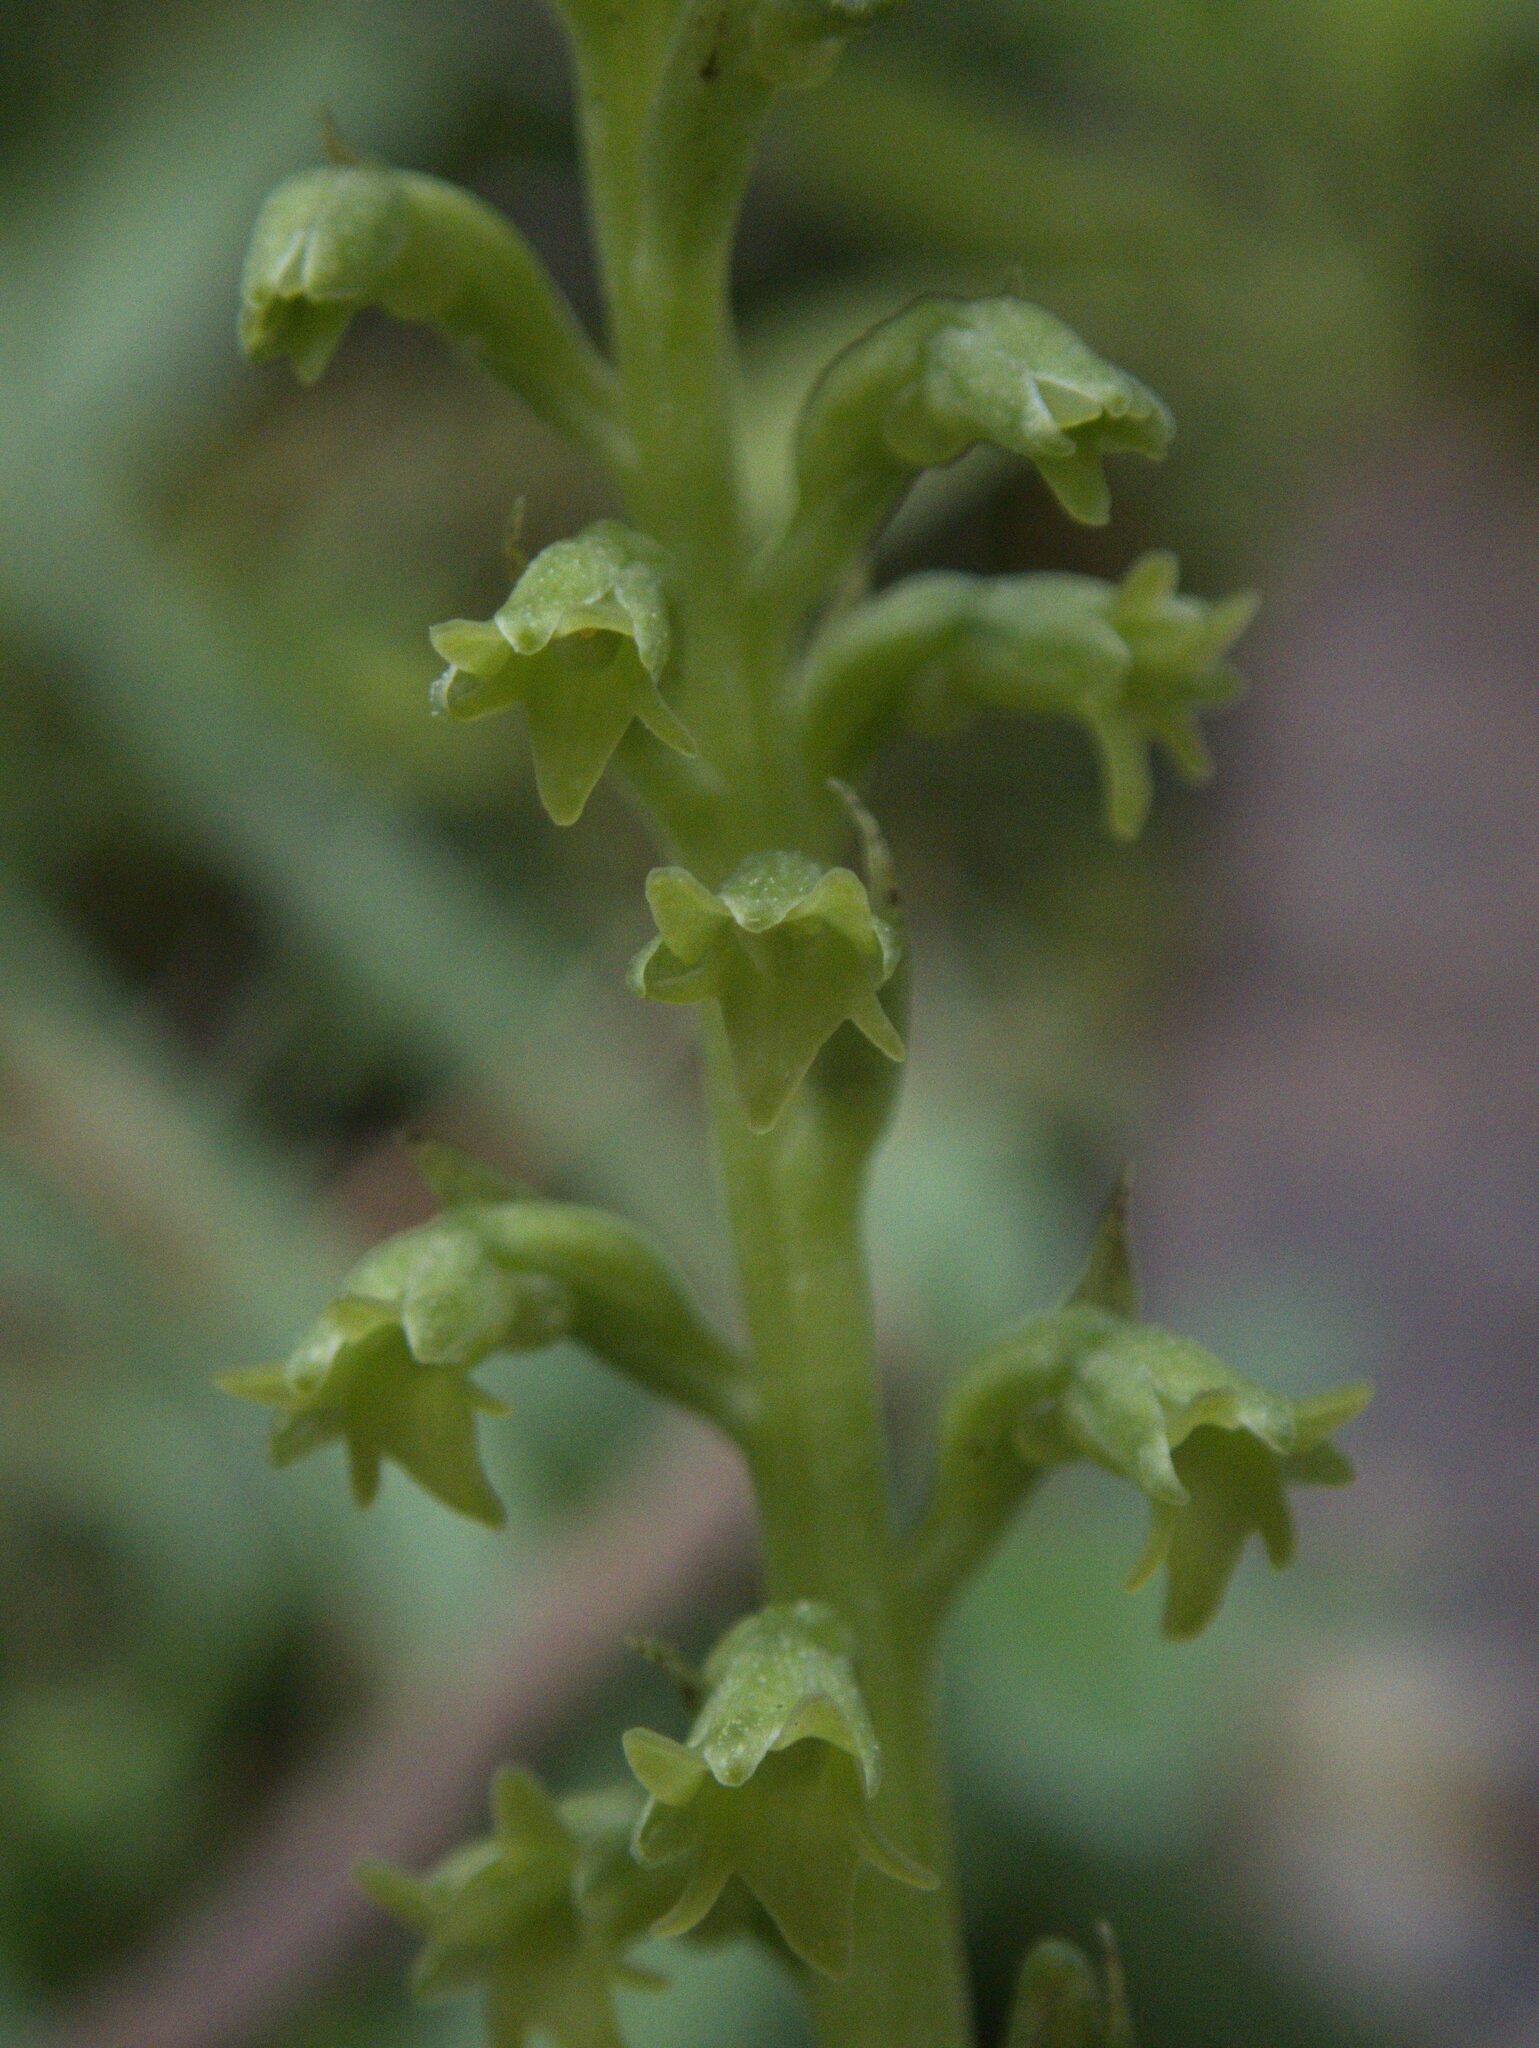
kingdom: Plantae
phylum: Tracheophyta
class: Liliopsida
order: Asparagales
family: Orchidaceae
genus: Gennaria
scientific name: Gennaria diphylla
